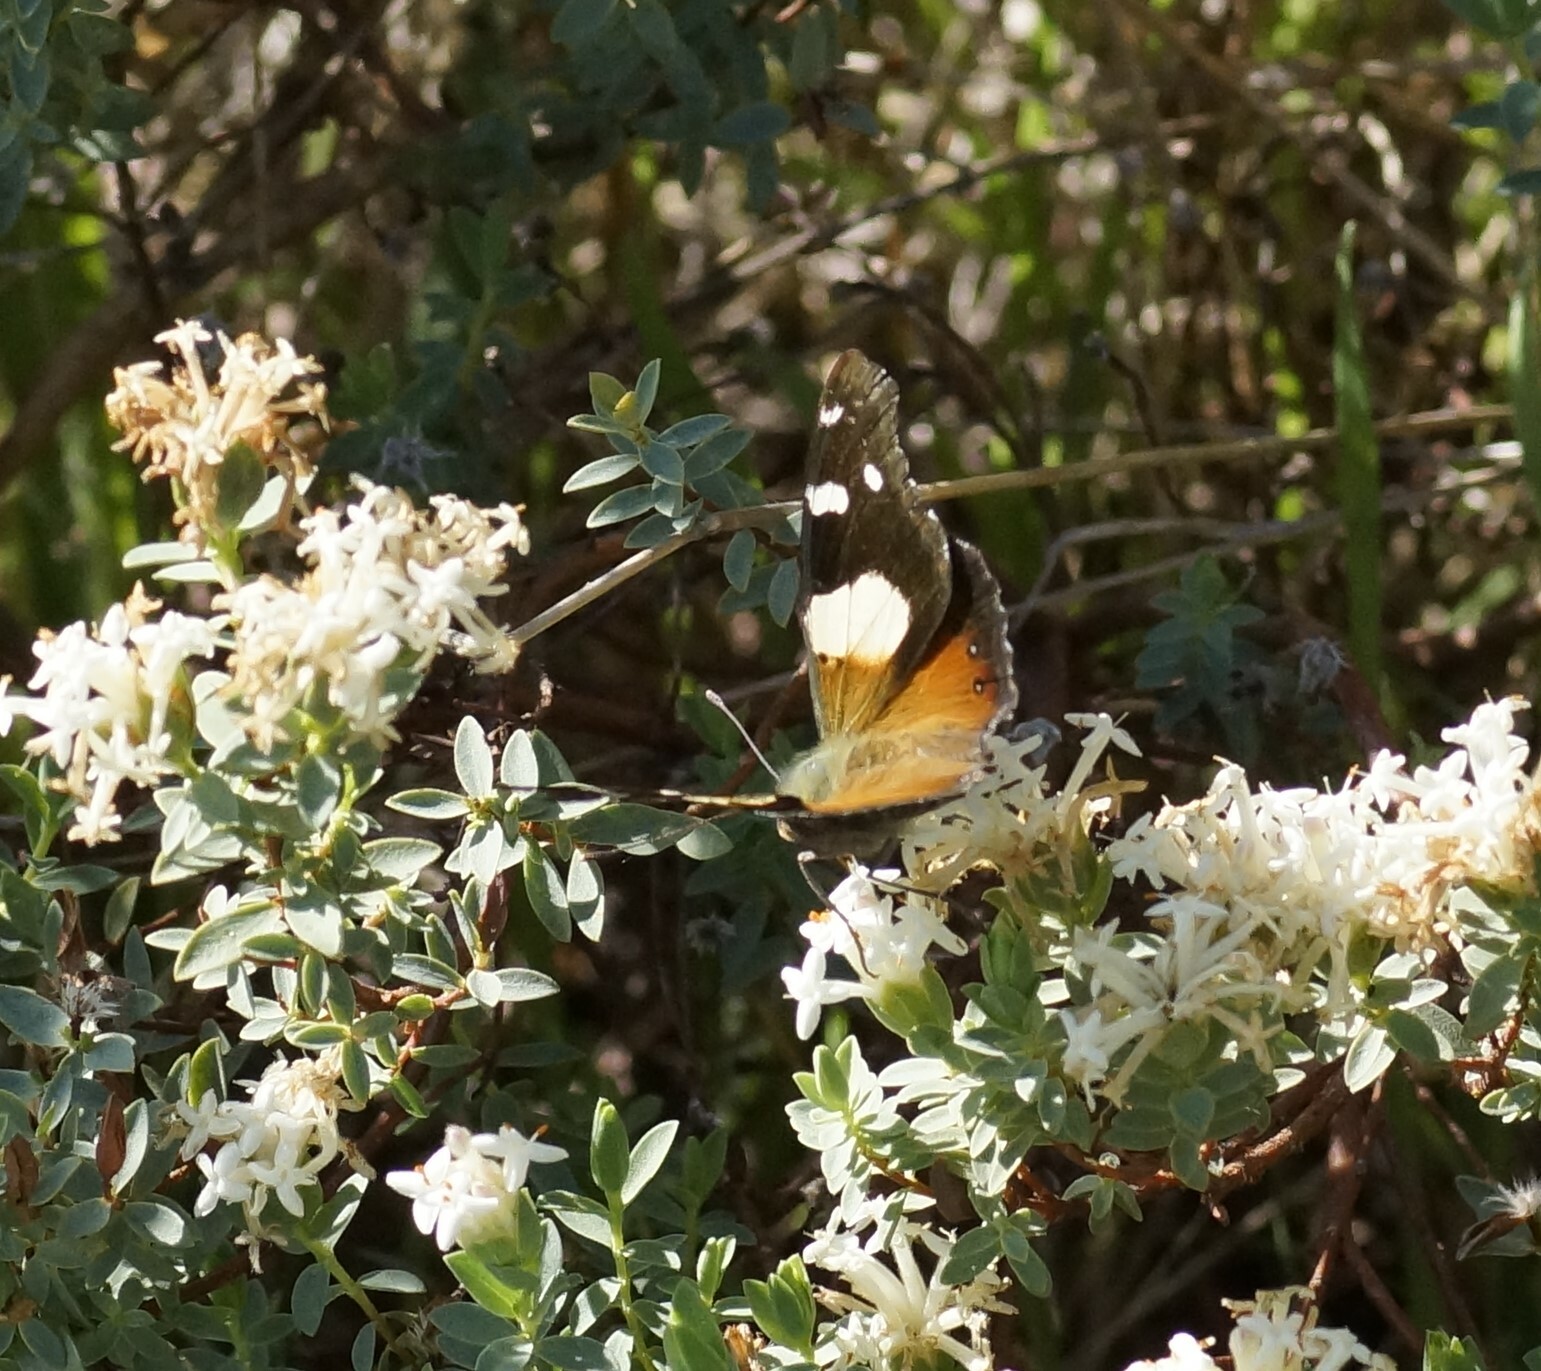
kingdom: Animalia
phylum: Arthropoda
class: Insecta
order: Lepidoptera
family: Nymphalidae
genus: Vanessa
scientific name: Vanessa itea
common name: Yellow admiral
